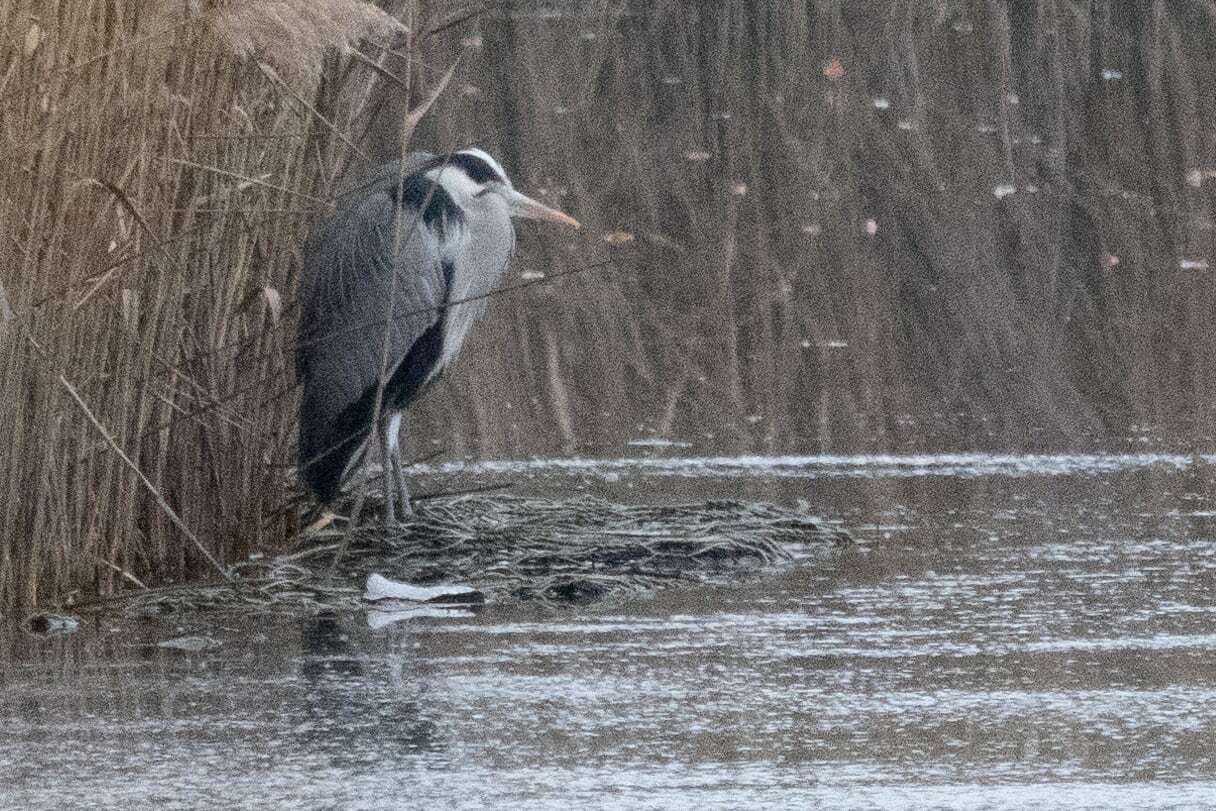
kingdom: Animalia
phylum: Chordata
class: Aves
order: Pelecaniformes
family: Ardeidae
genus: Ardea
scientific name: Ardea cinerea
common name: Grey heron
